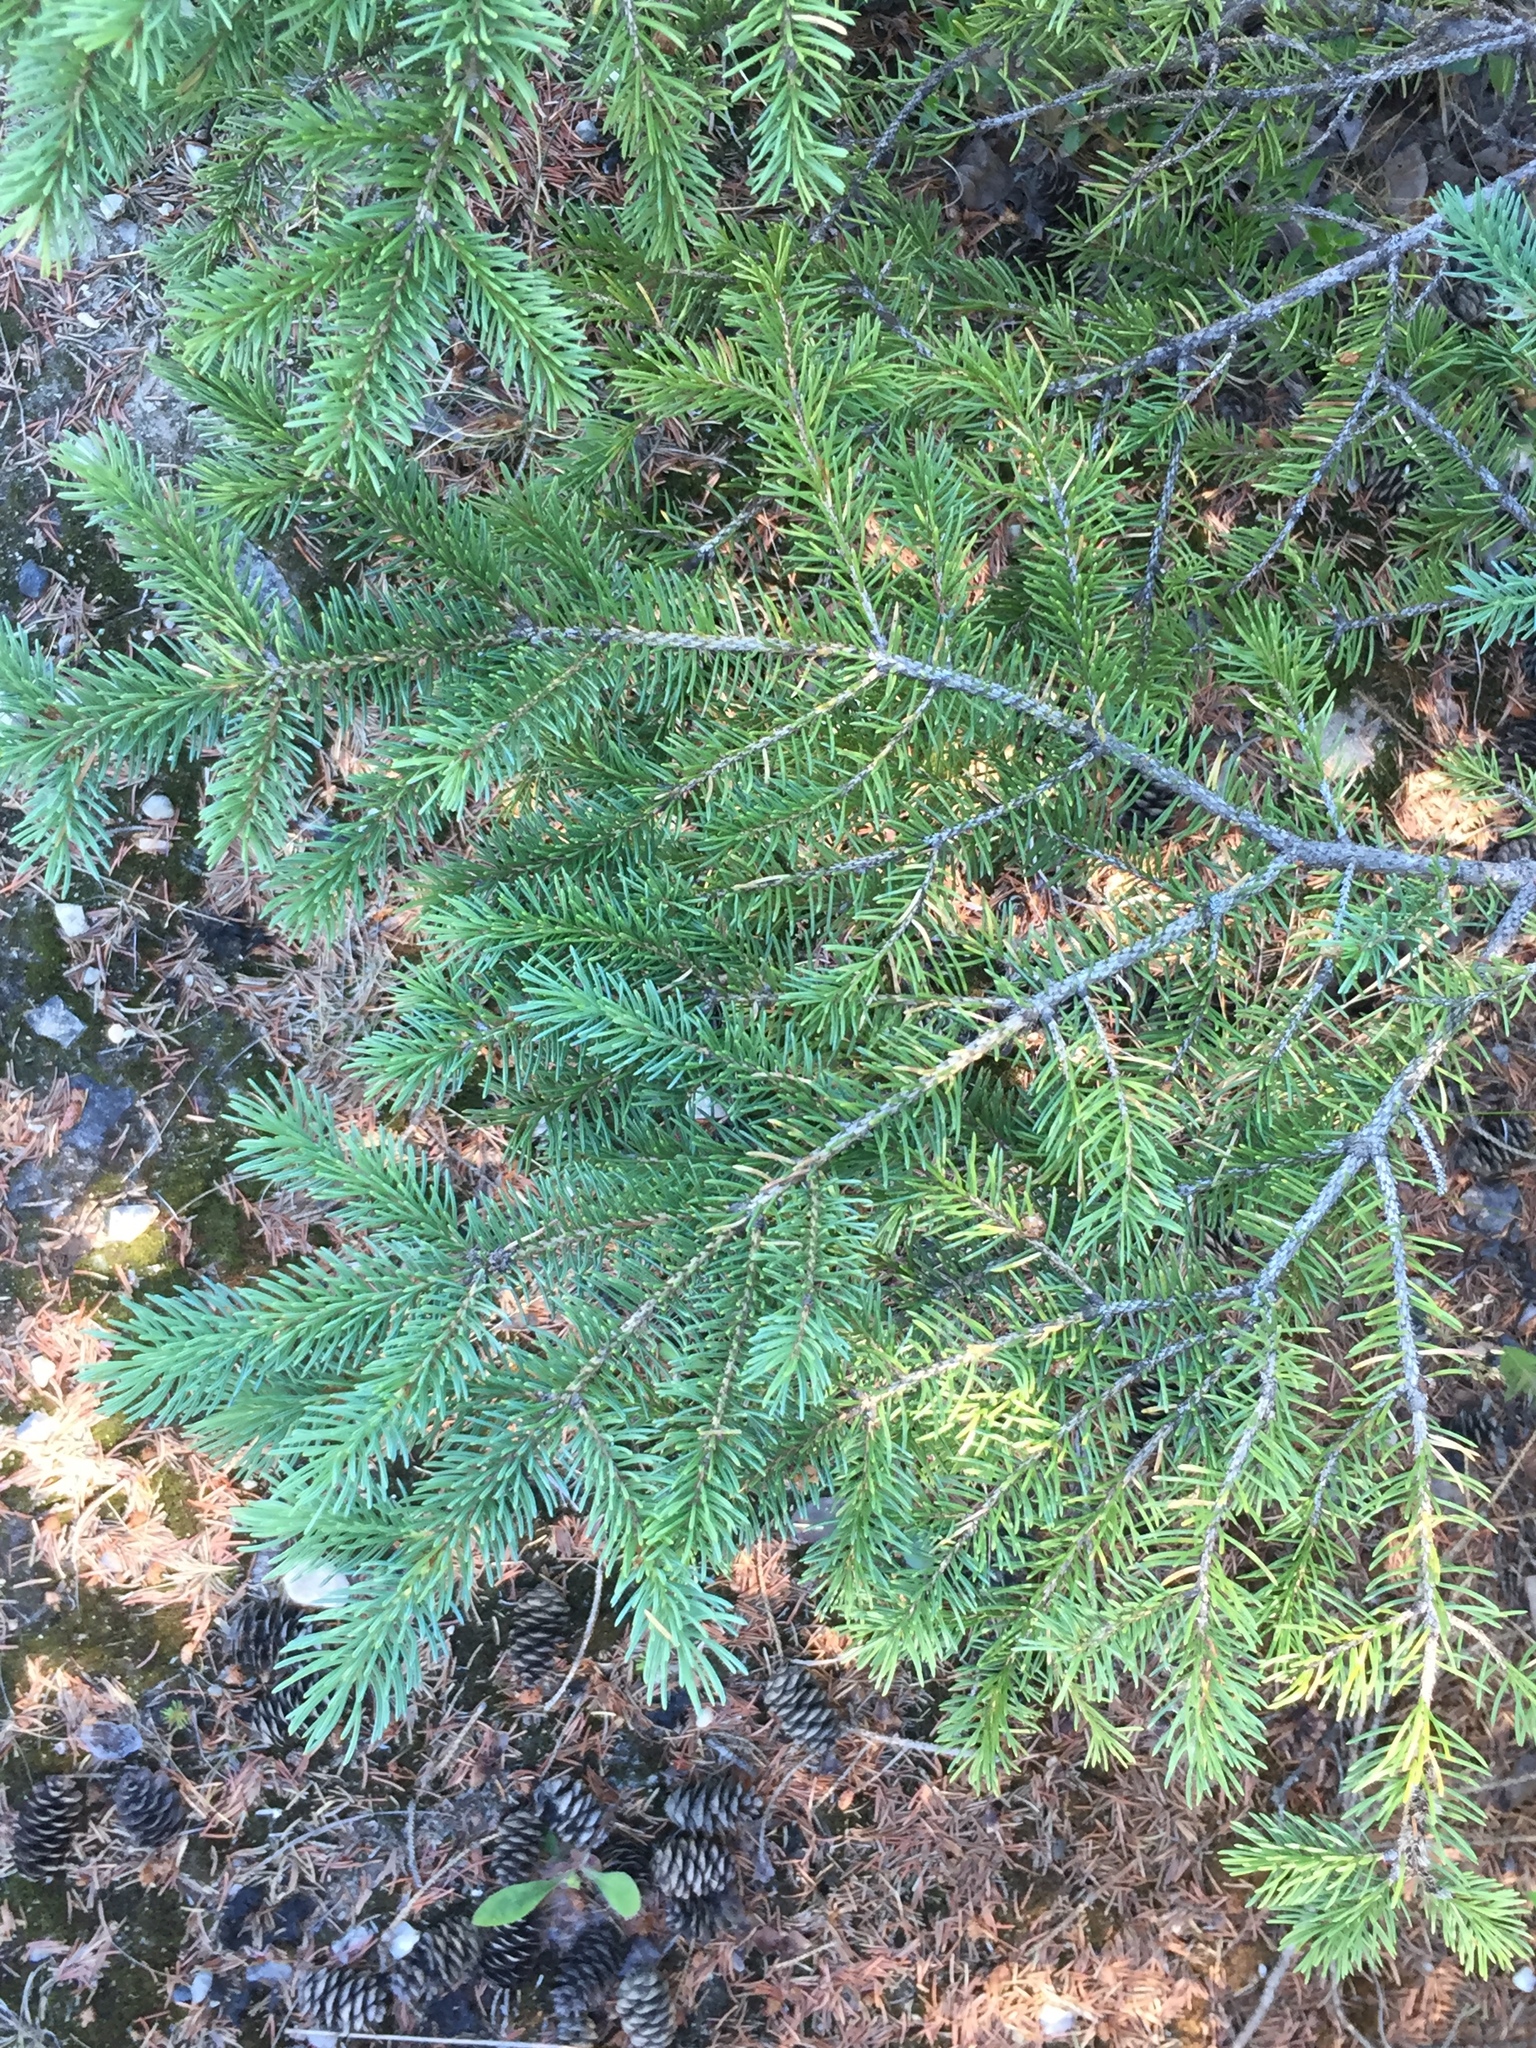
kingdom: Plantae
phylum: Tracheophyta
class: Pinopsida
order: Pinales
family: Pinaceae
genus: Picea
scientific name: Picea glauca
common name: White spruce
